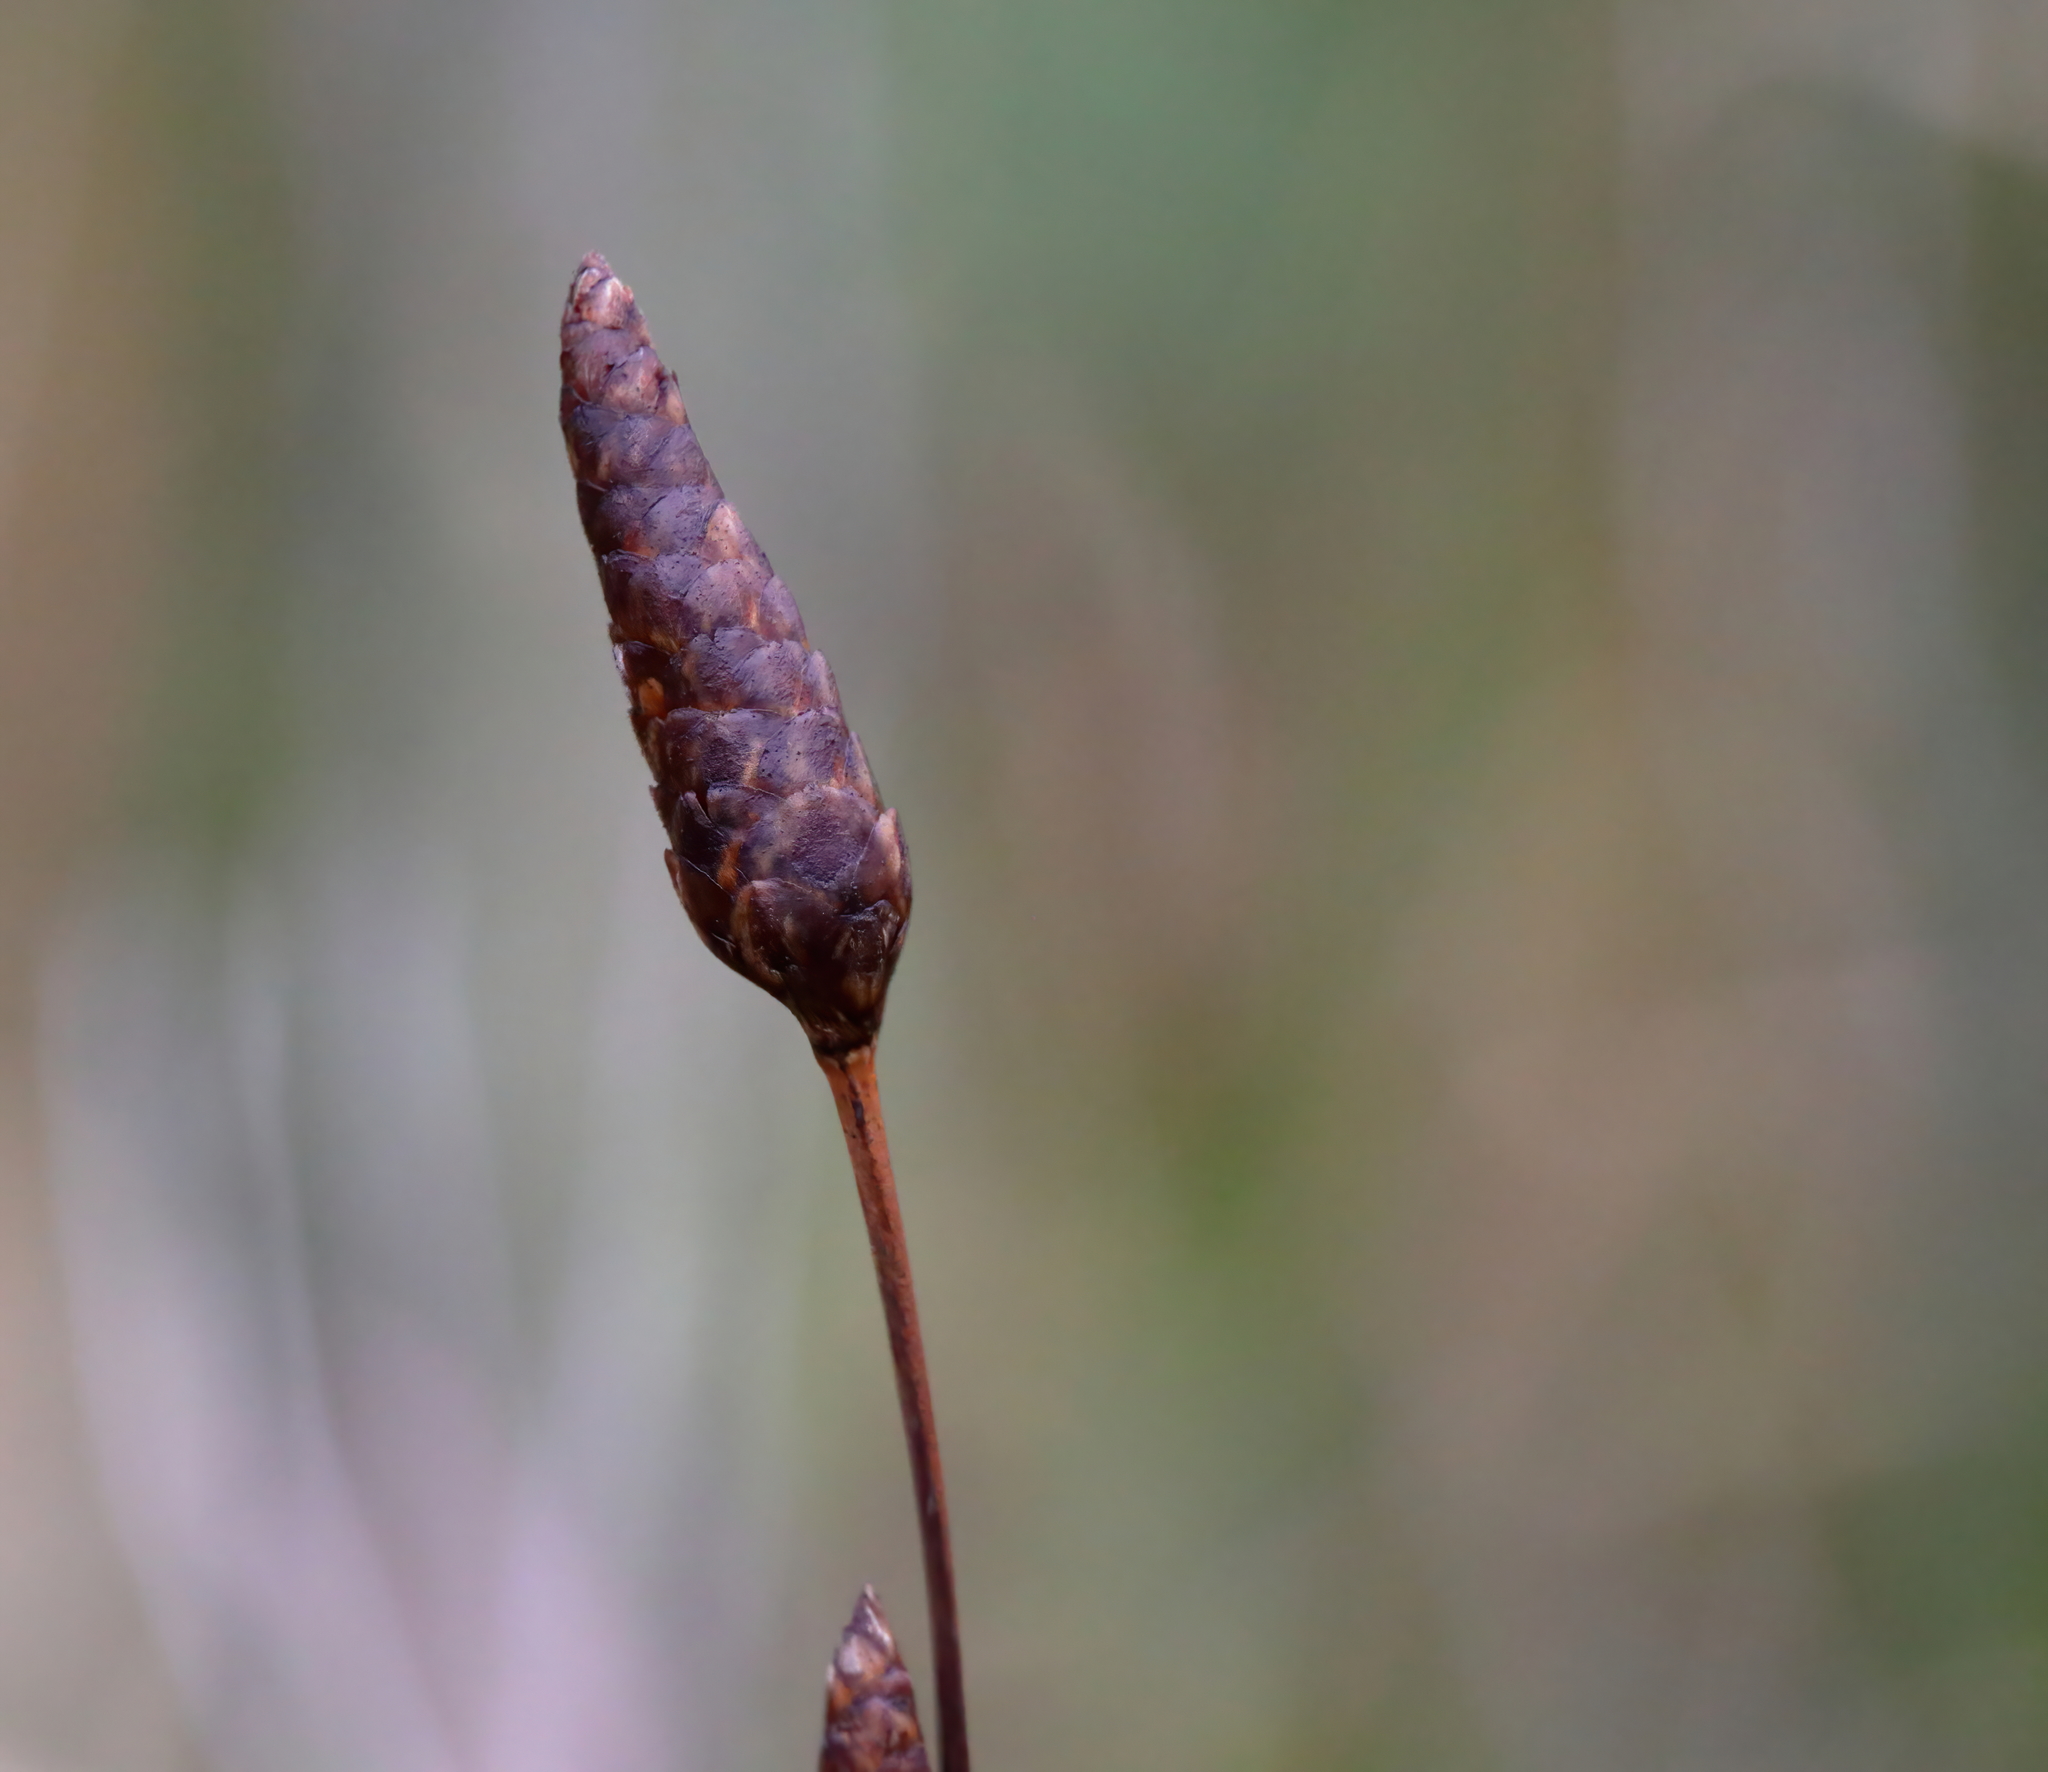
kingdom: Plantae
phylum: Tracheophyta
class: Liliopsida
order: Poales
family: Xyridaceae
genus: Xyris
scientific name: Xyris caroliniana
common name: Carolina yellow-eyed-grass
